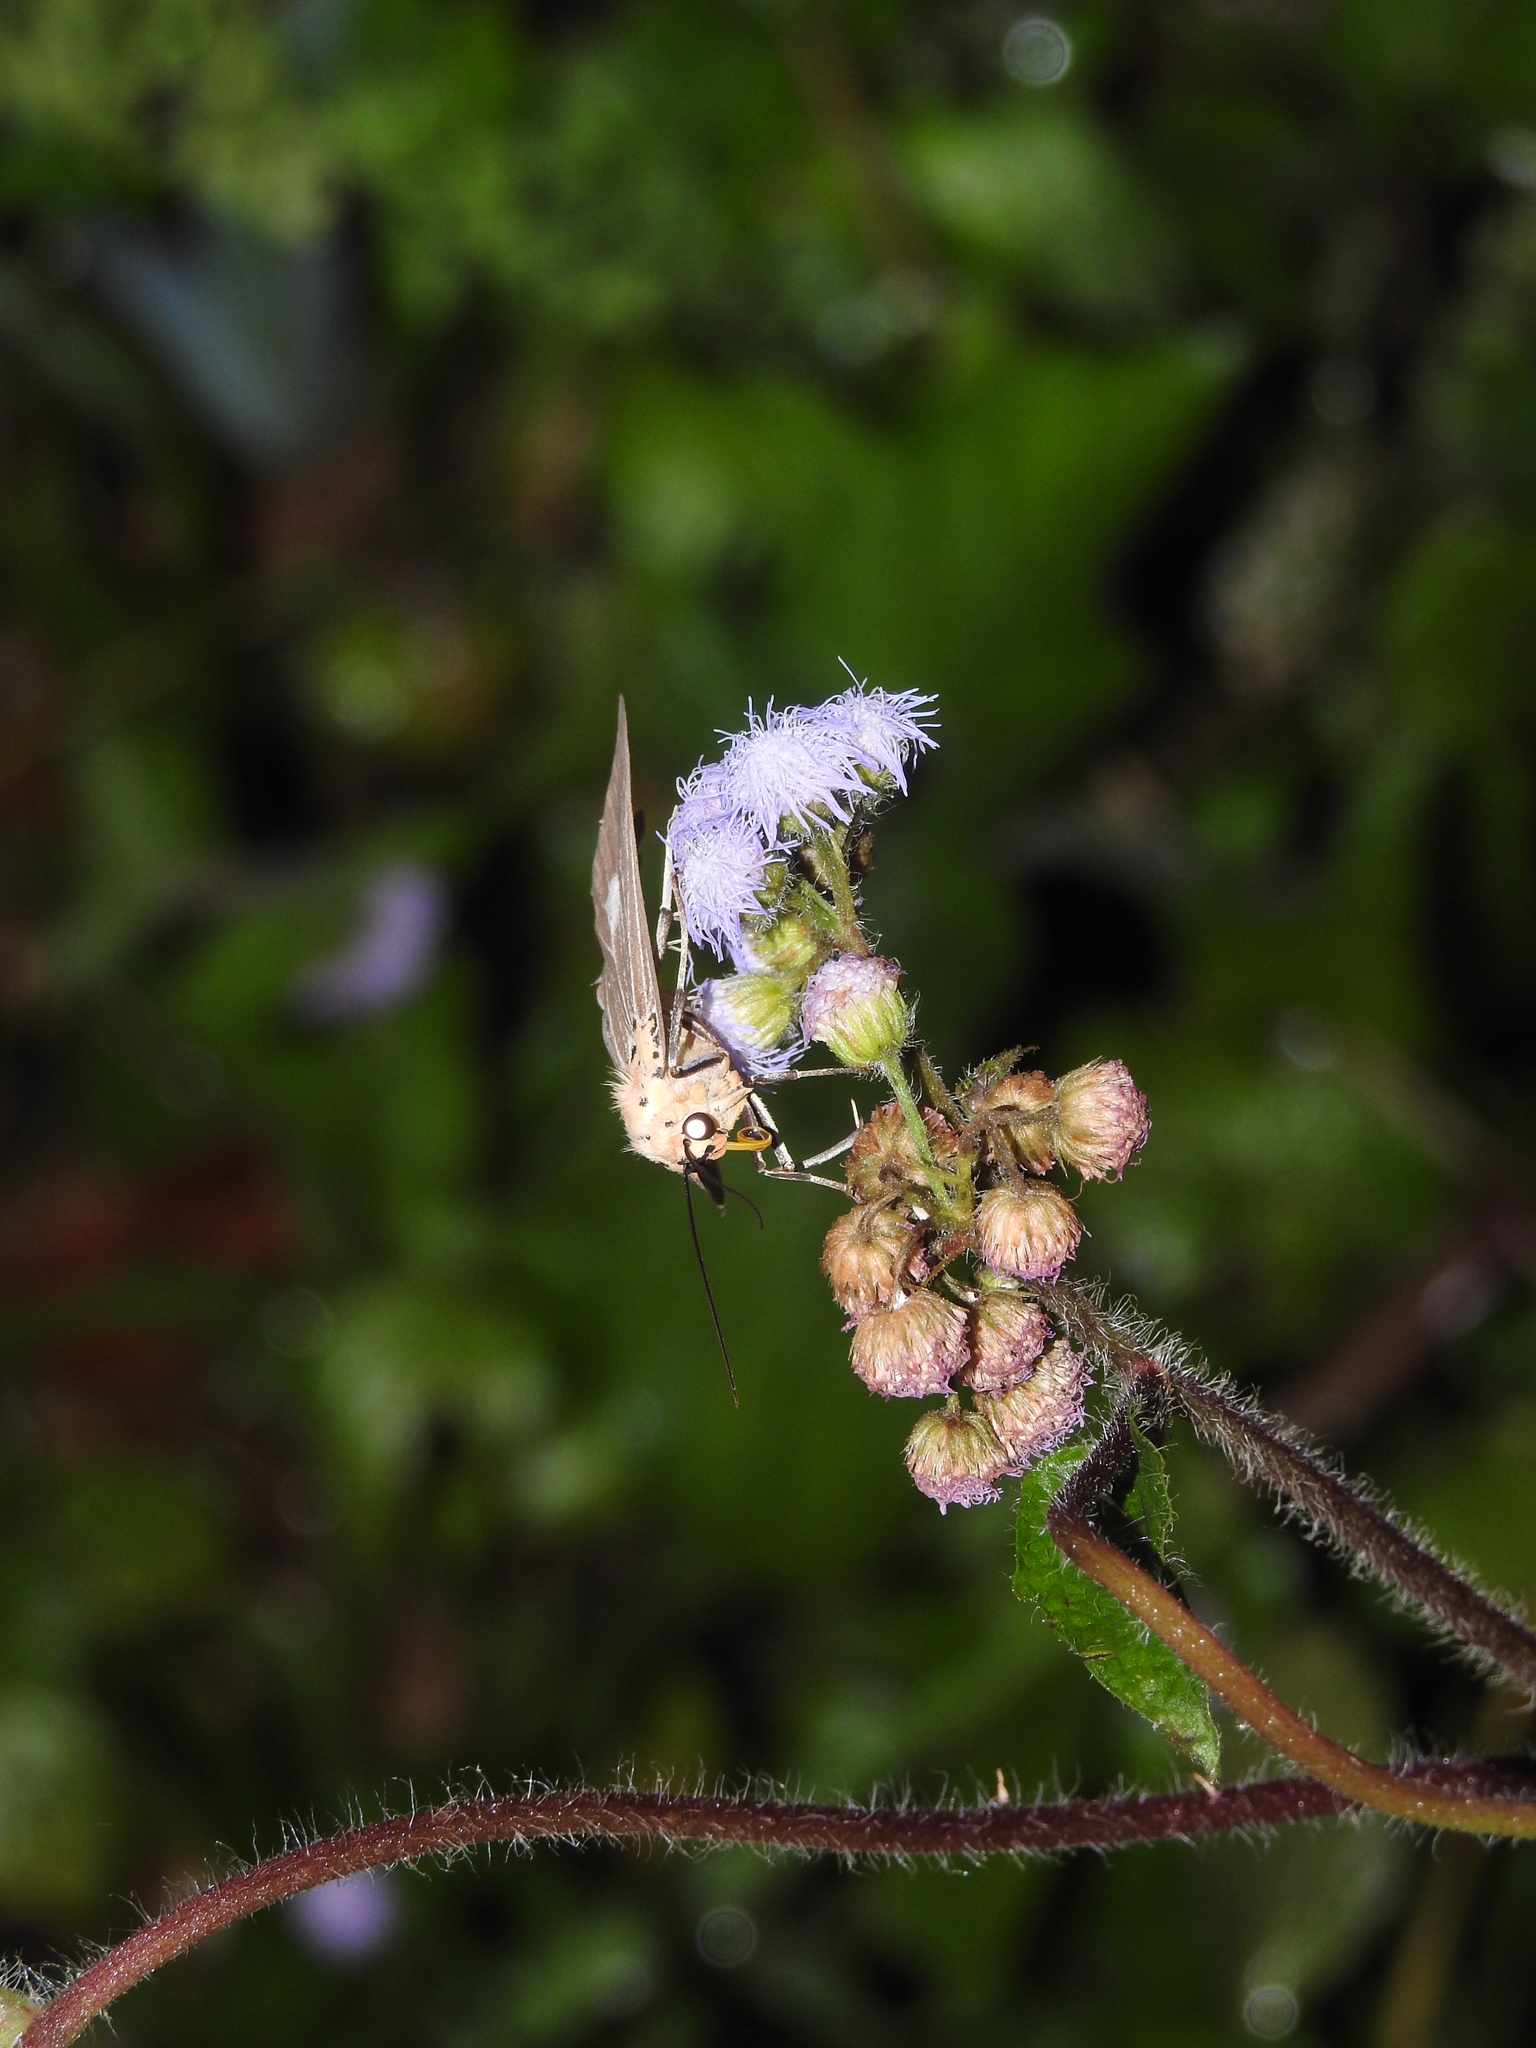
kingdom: Plantae
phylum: Tracheophyta
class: Magnoliopsida
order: Asterales
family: Asteraceae
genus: Chromolaena
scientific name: Chromolaena odorata
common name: Siamweed
